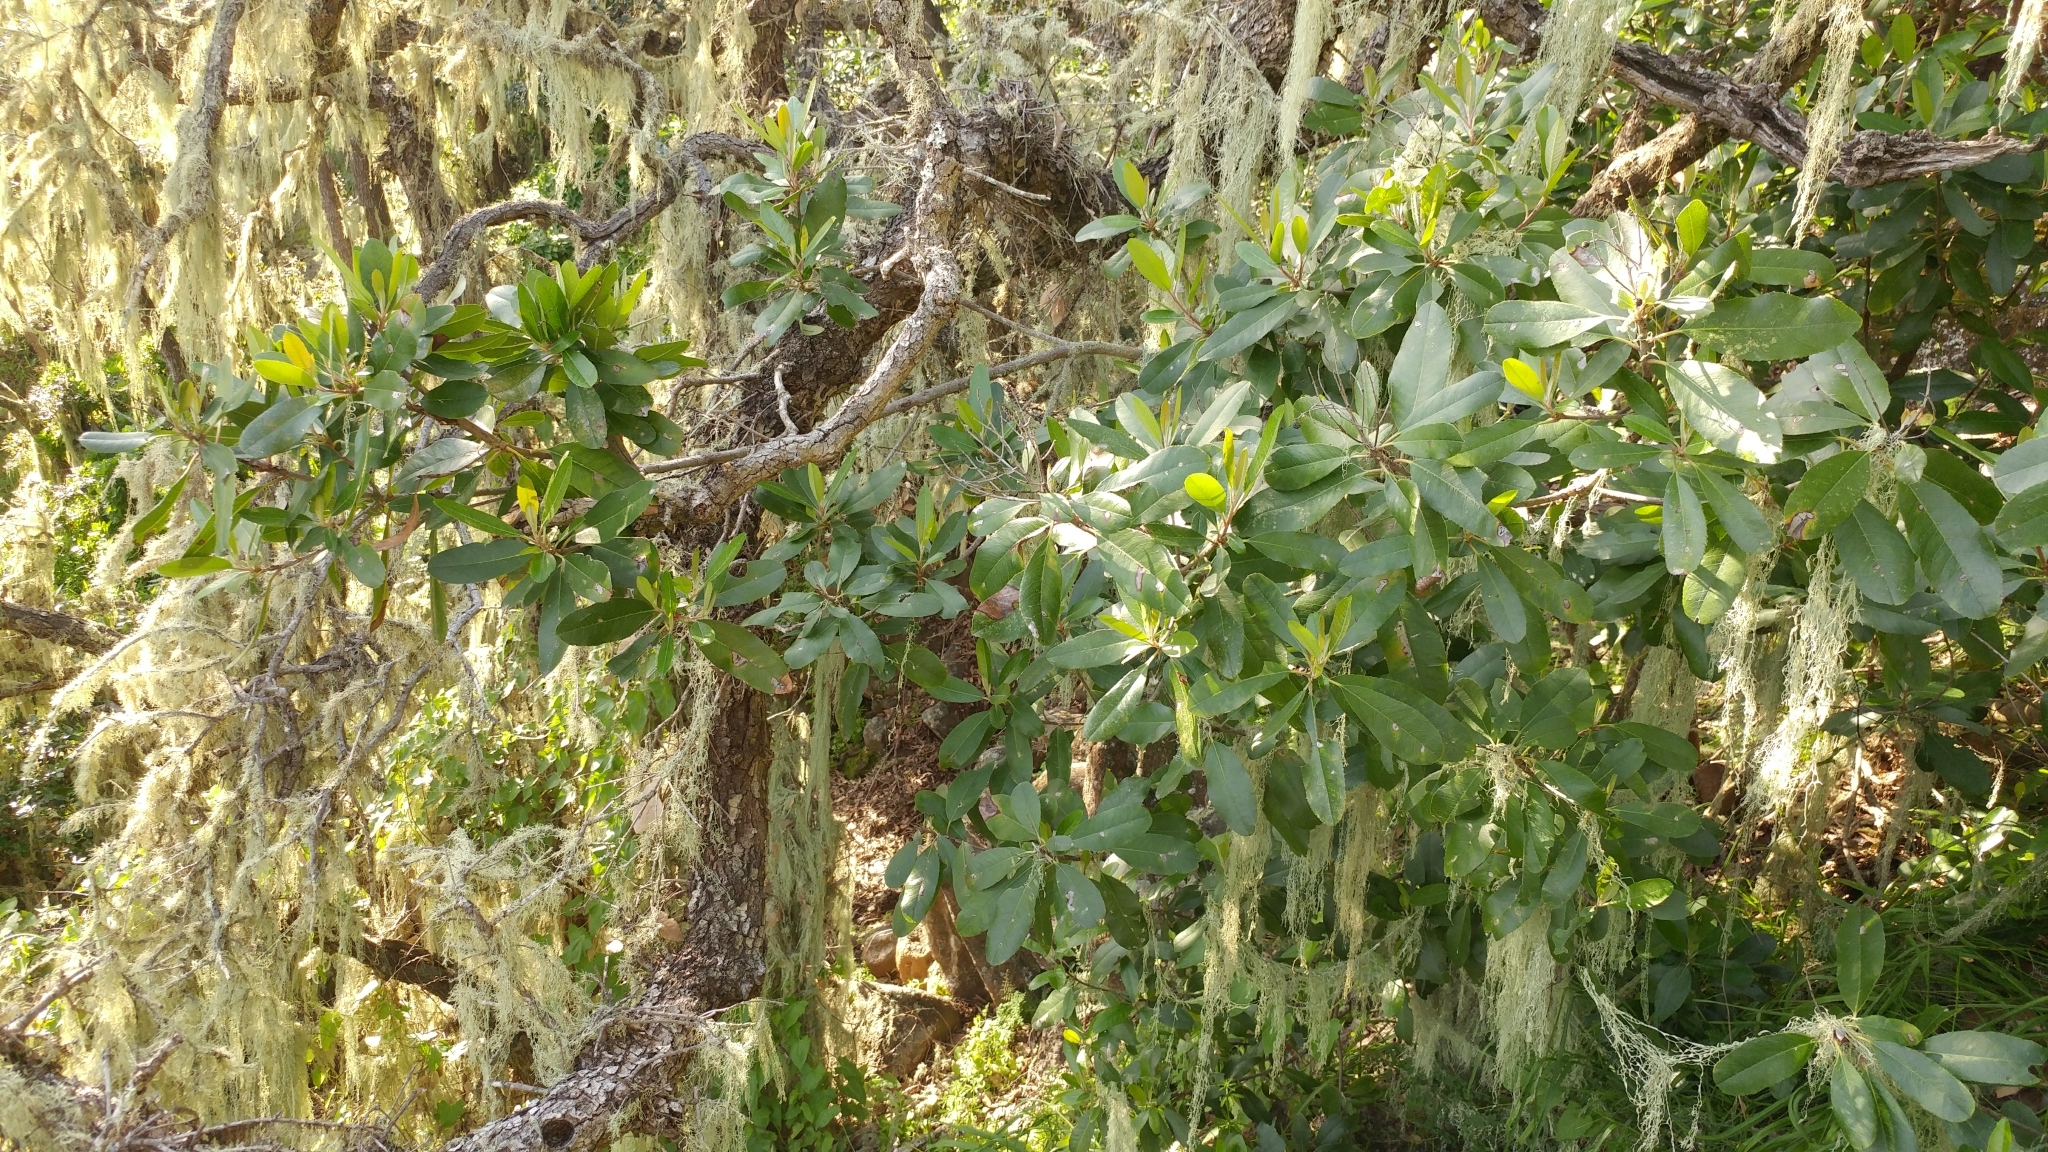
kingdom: Plantae
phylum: Tracheophyta
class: Magnoliopsida
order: Rosales
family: Rosaceae
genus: Heteromeles
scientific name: Heteromeles arbutifolia
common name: California-holly
